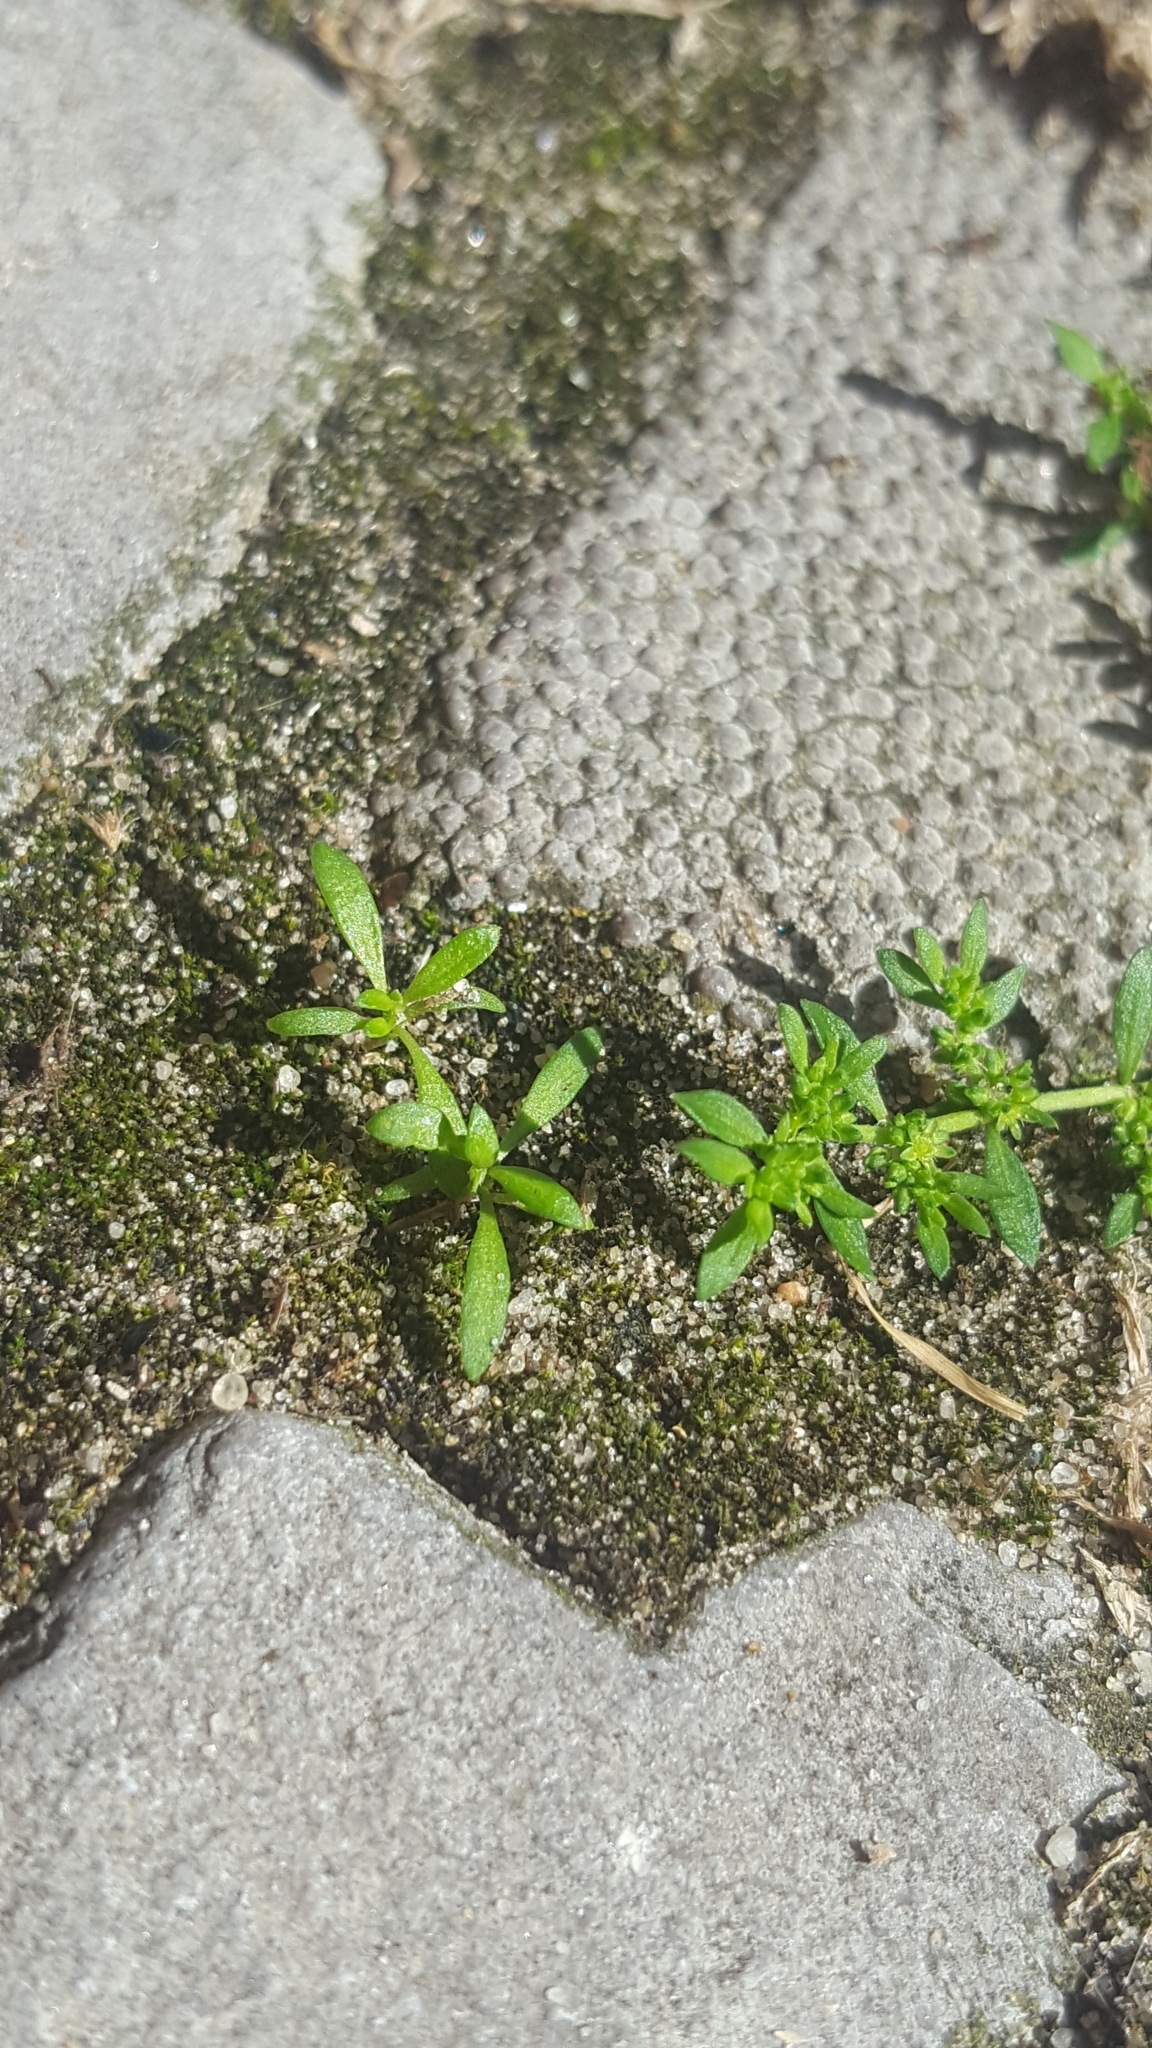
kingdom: Plantae
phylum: Tracheophyta
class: Magnoliopsida
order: Caryophyllales
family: Caryophyllaceae
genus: Herniaria
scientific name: Herniaria glabra
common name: Smooth rupturewort
